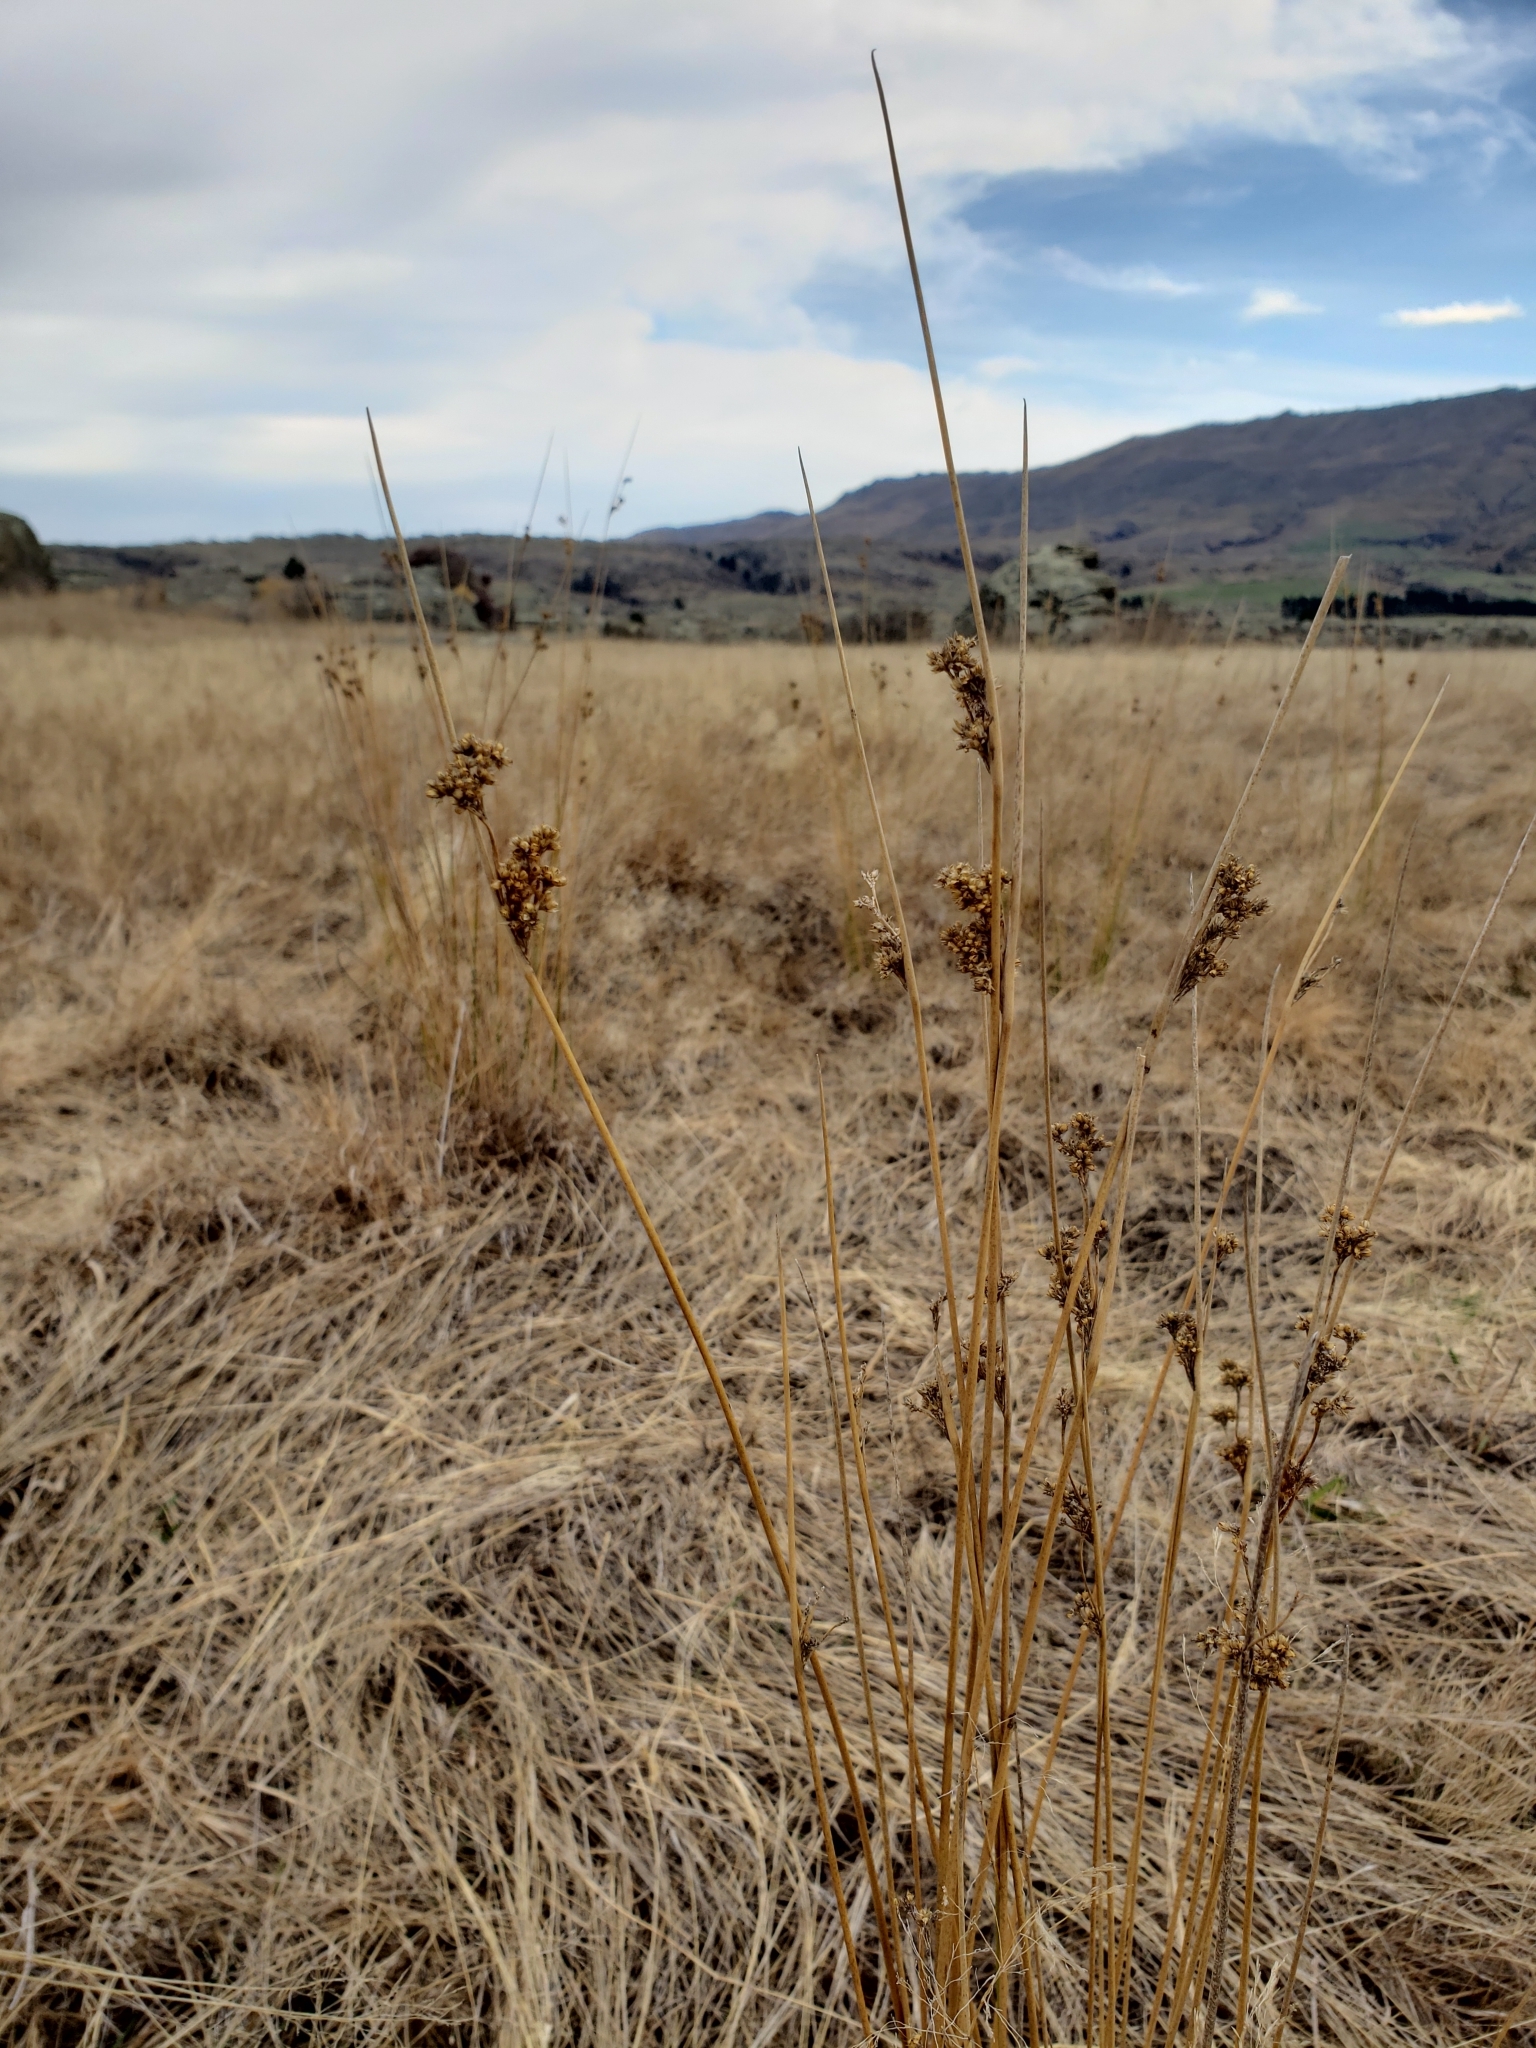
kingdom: Plantae
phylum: Tracheophyta
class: Liliopsida
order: Poales
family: Juncaceae
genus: Juncus
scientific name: Juncus pallidus
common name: Great soft-rush
